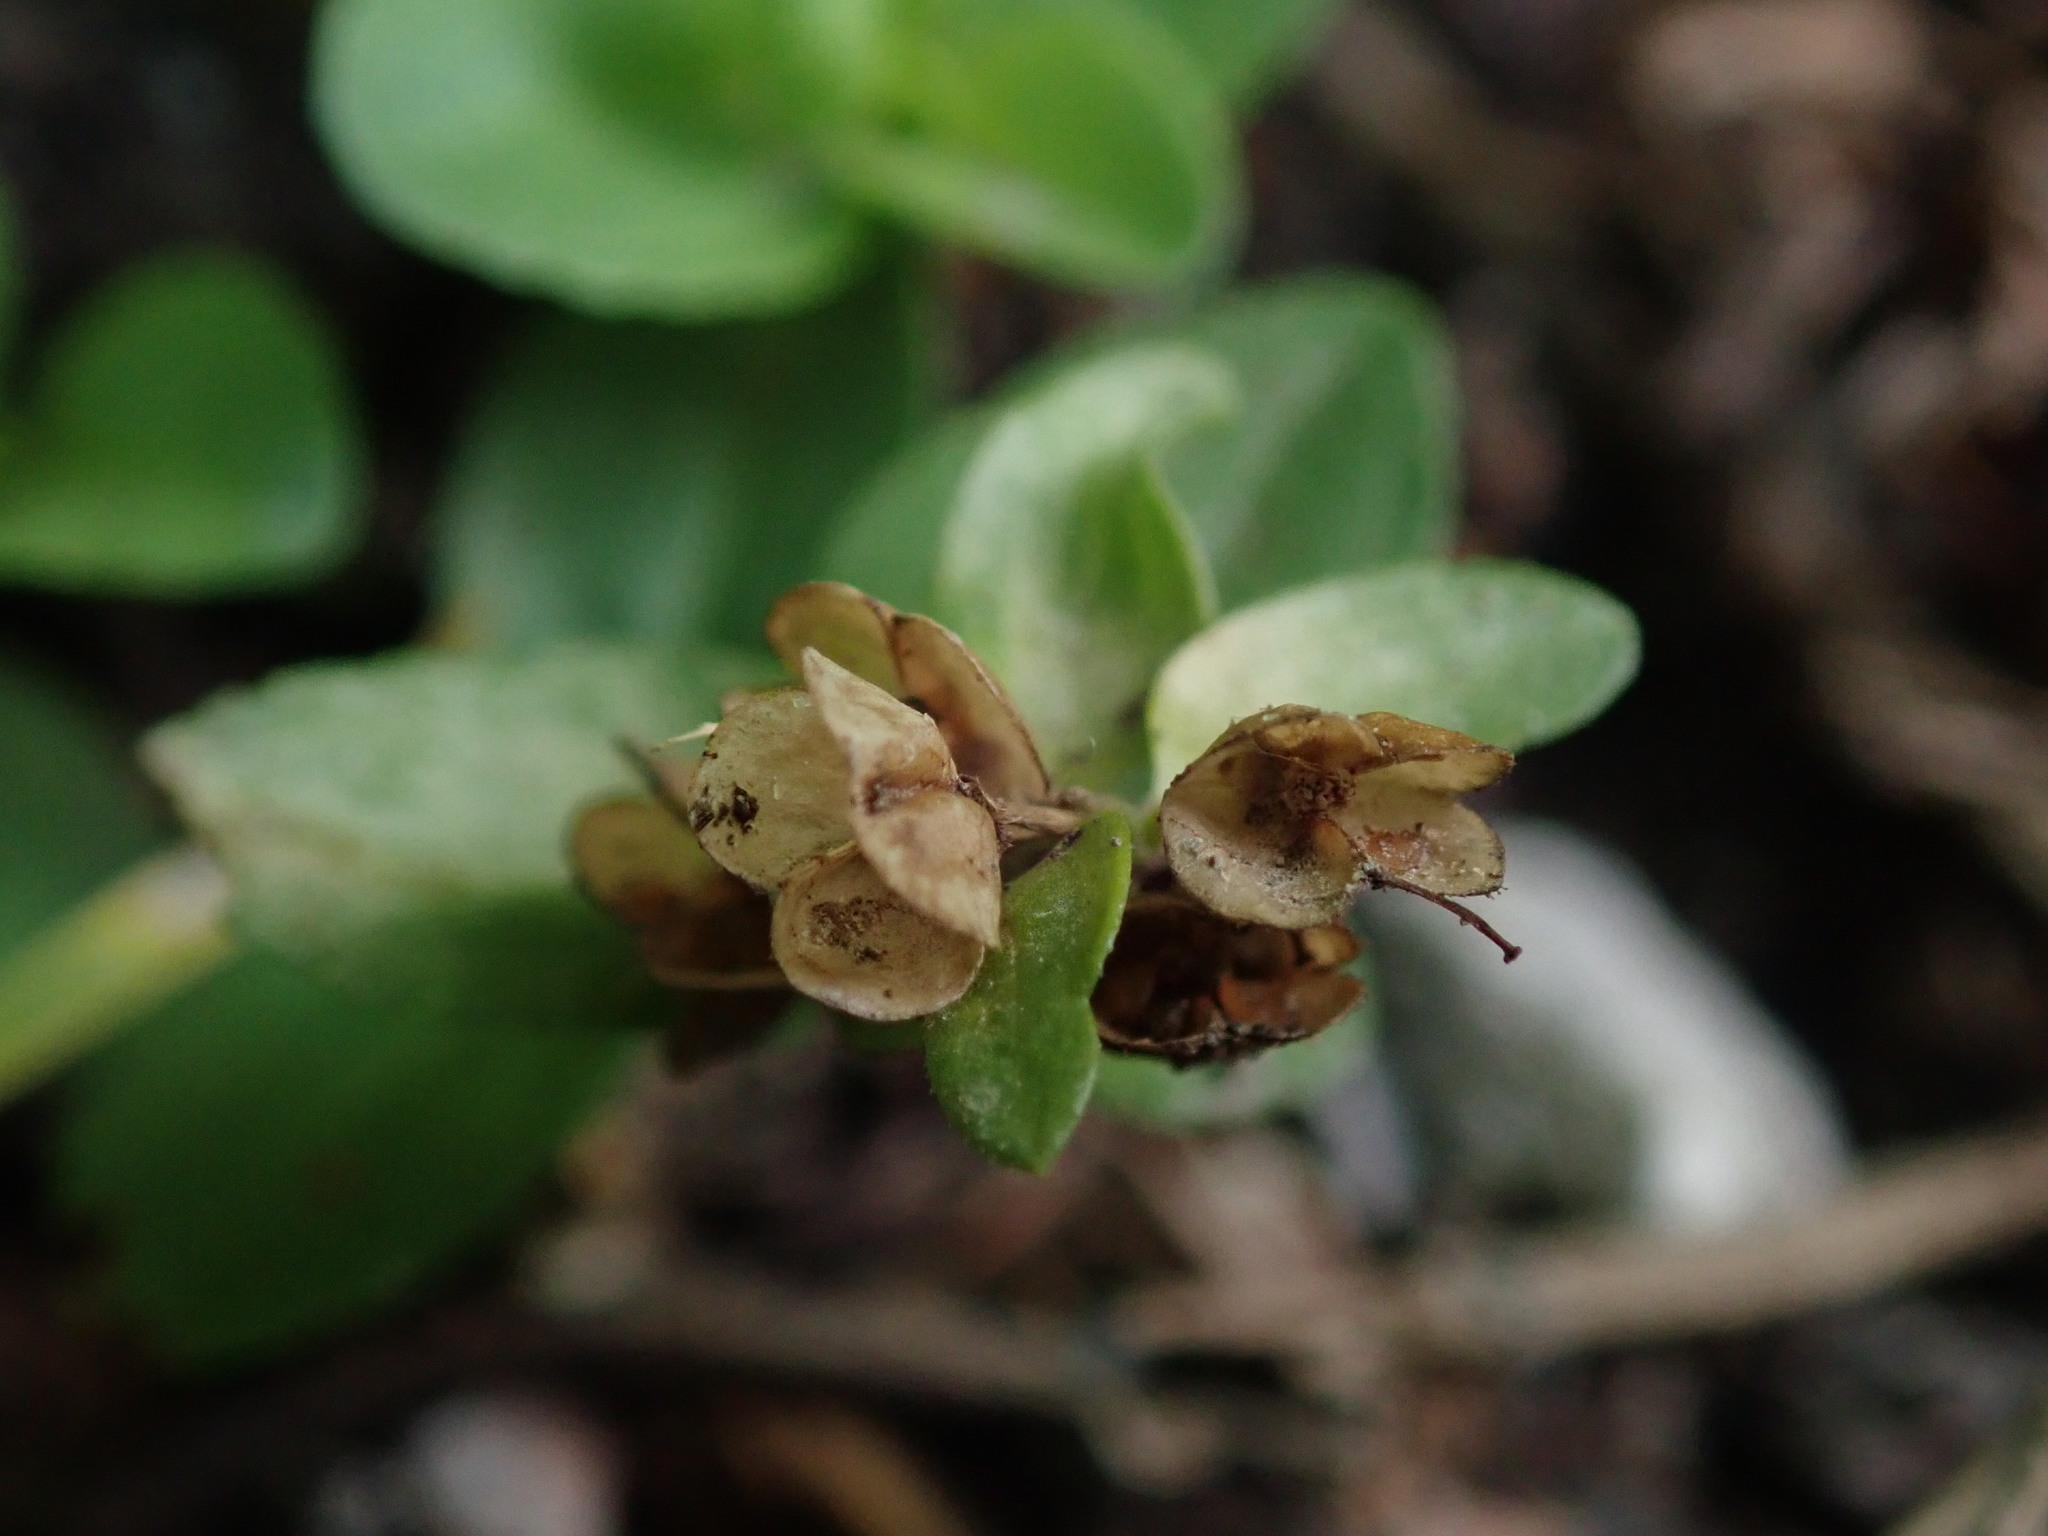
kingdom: Plantae
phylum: Tracheophyta
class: Magnoliopsida
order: Lamiales
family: Plantaginaceae
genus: Veronica
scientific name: Veronica serpyllifolia
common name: Thyme-leaved speedwell
